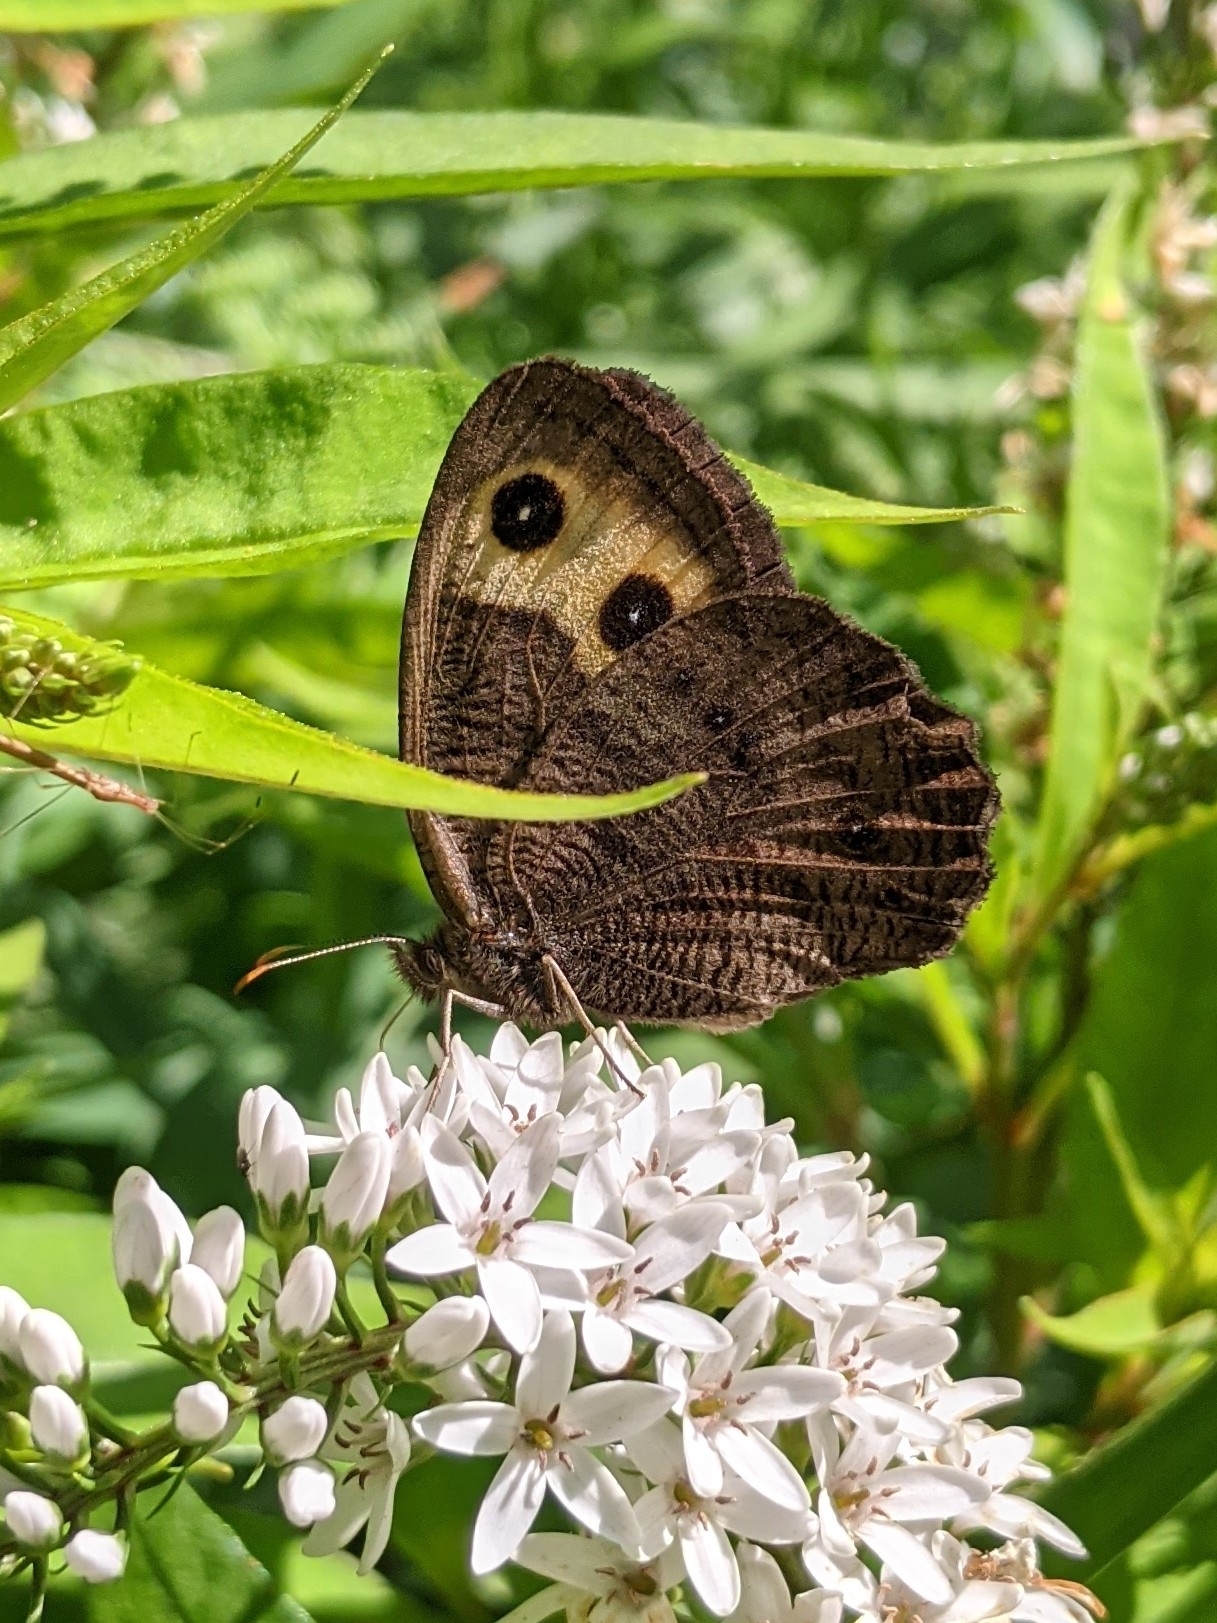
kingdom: Animalia
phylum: Arthropoda
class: Insecta
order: Lepidoptera
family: Nymphalidae
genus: Cercyonis
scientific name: Cercyonis pegala
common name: Common wood-nymph
